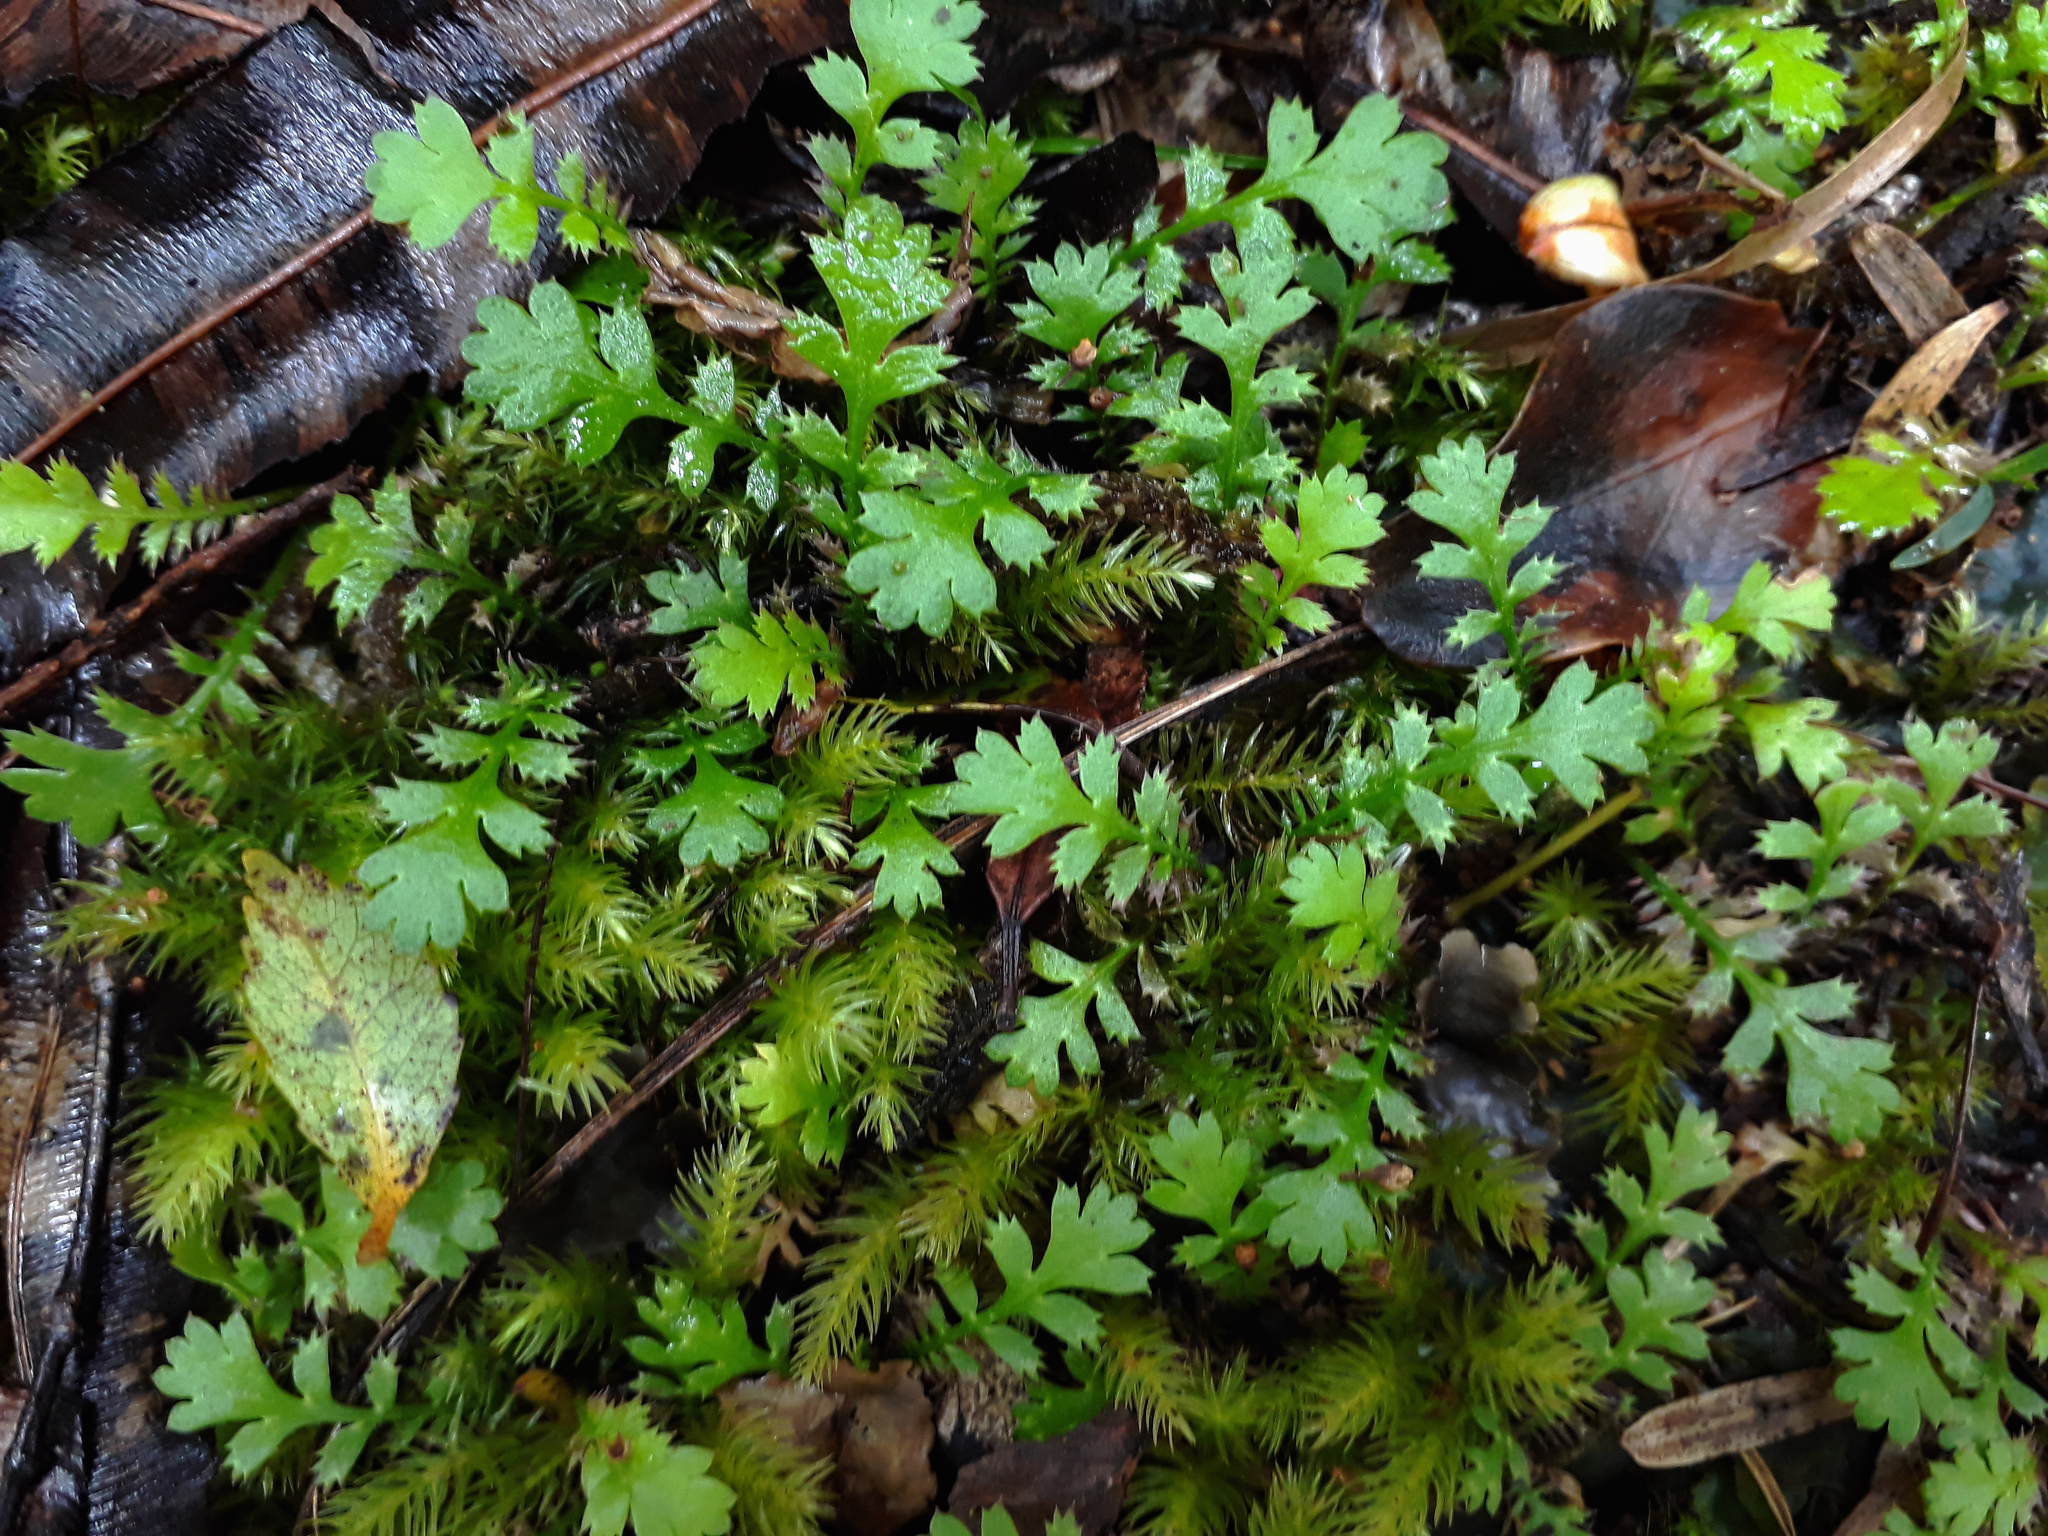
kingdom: Plantae
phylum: Tracheophyta
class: Magnoliopsida
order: Asterales
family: Asteraceae
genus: Leptinella
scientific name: Leptinella squalida
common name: New zealand brass-buttons
